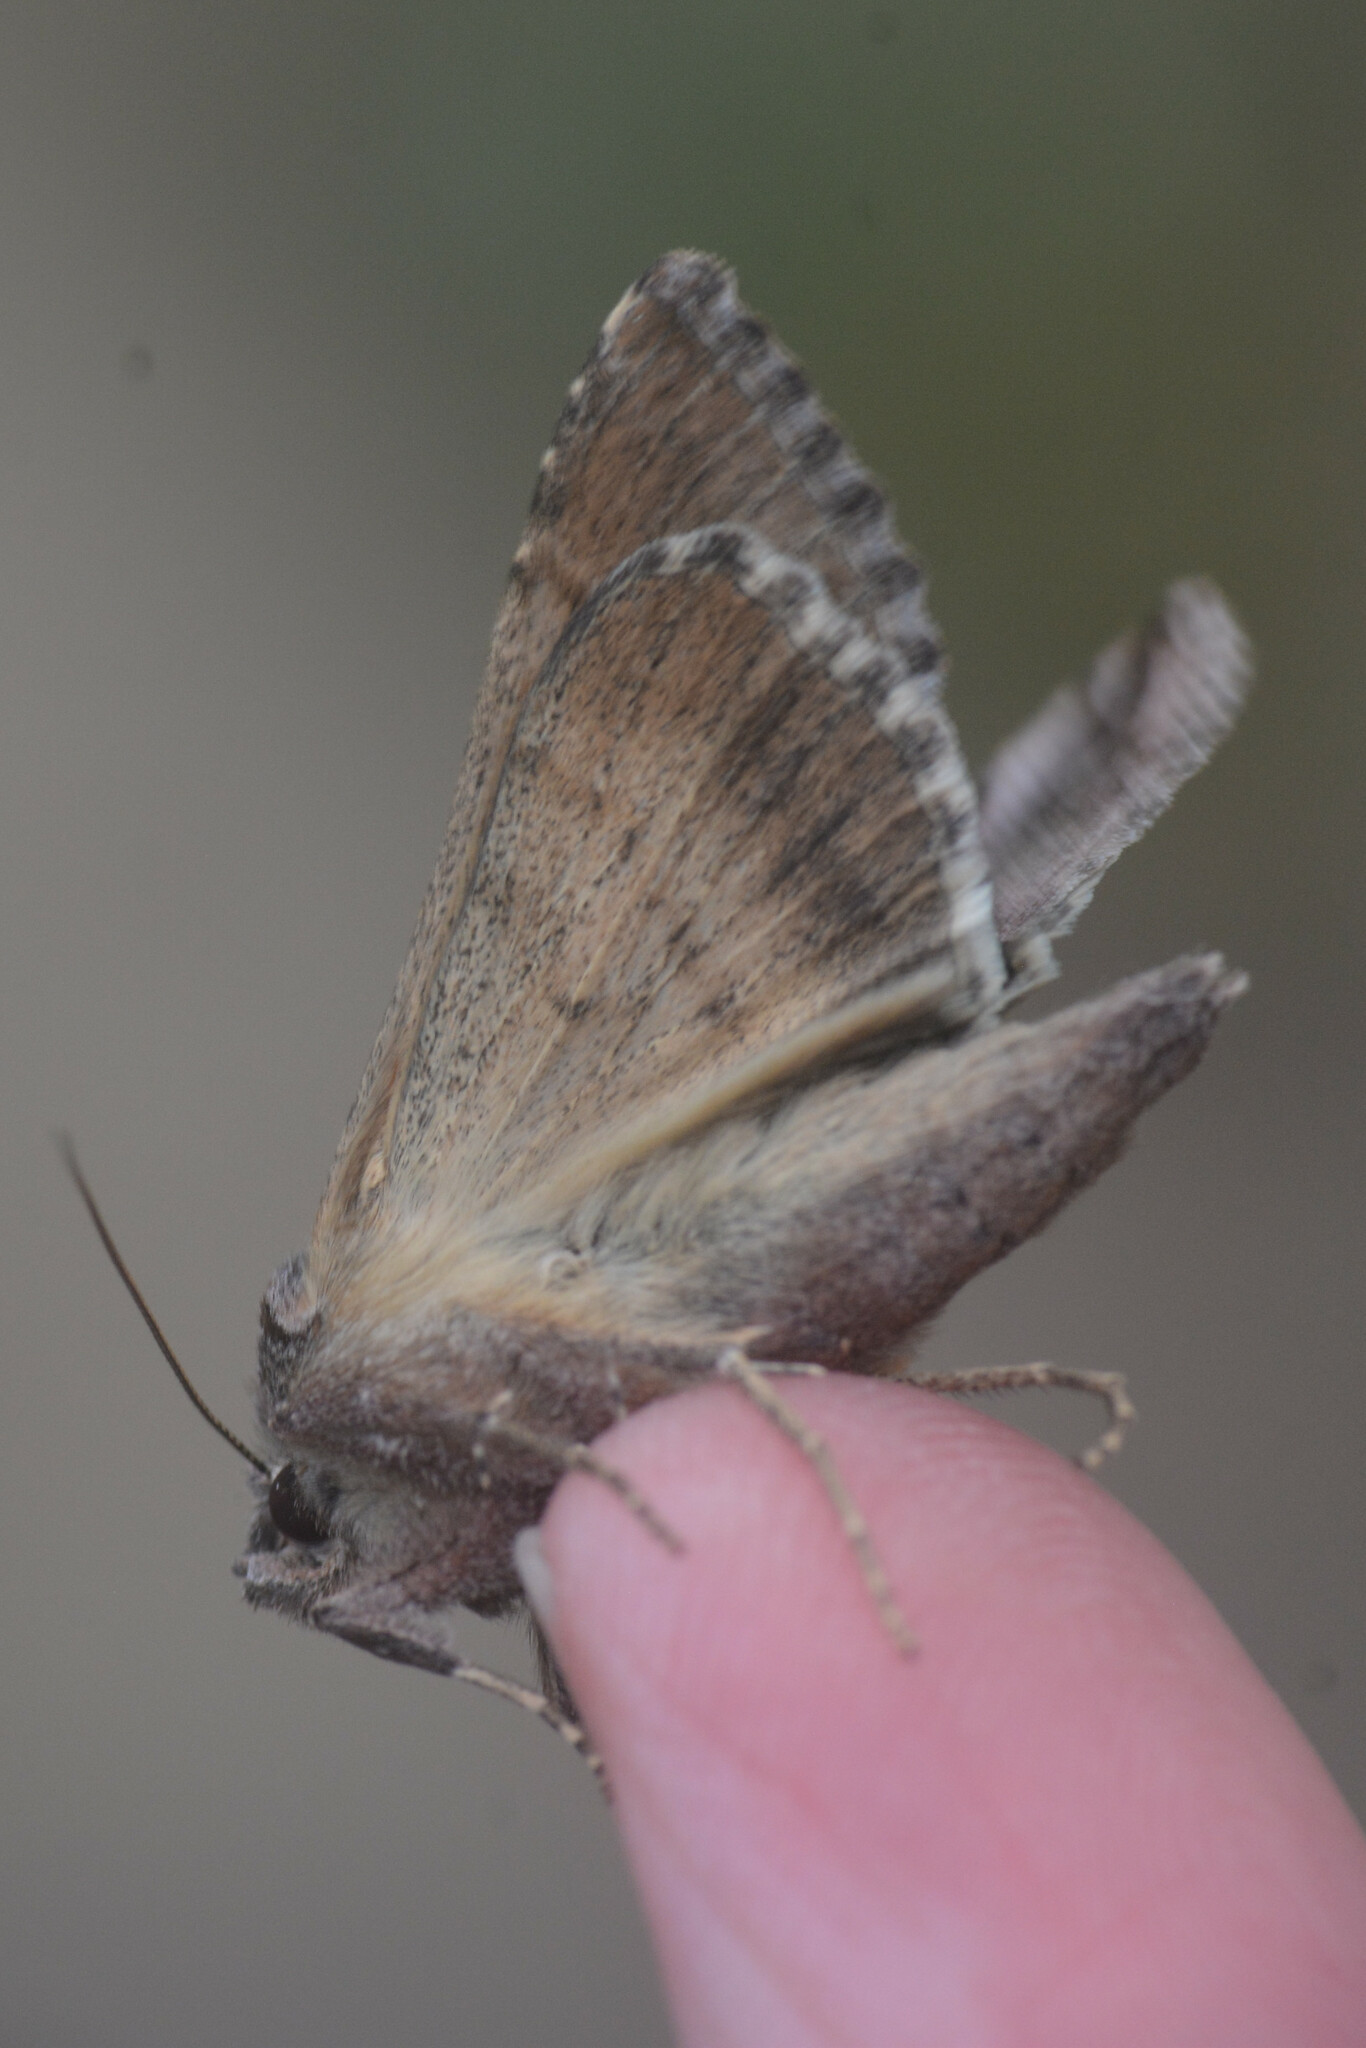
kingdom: Animalia
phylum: Arthropoda
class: Insecta
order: Lepidoptera
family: Noctuidae
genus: Autographa
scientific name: Autographa gamma
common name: Silver y
